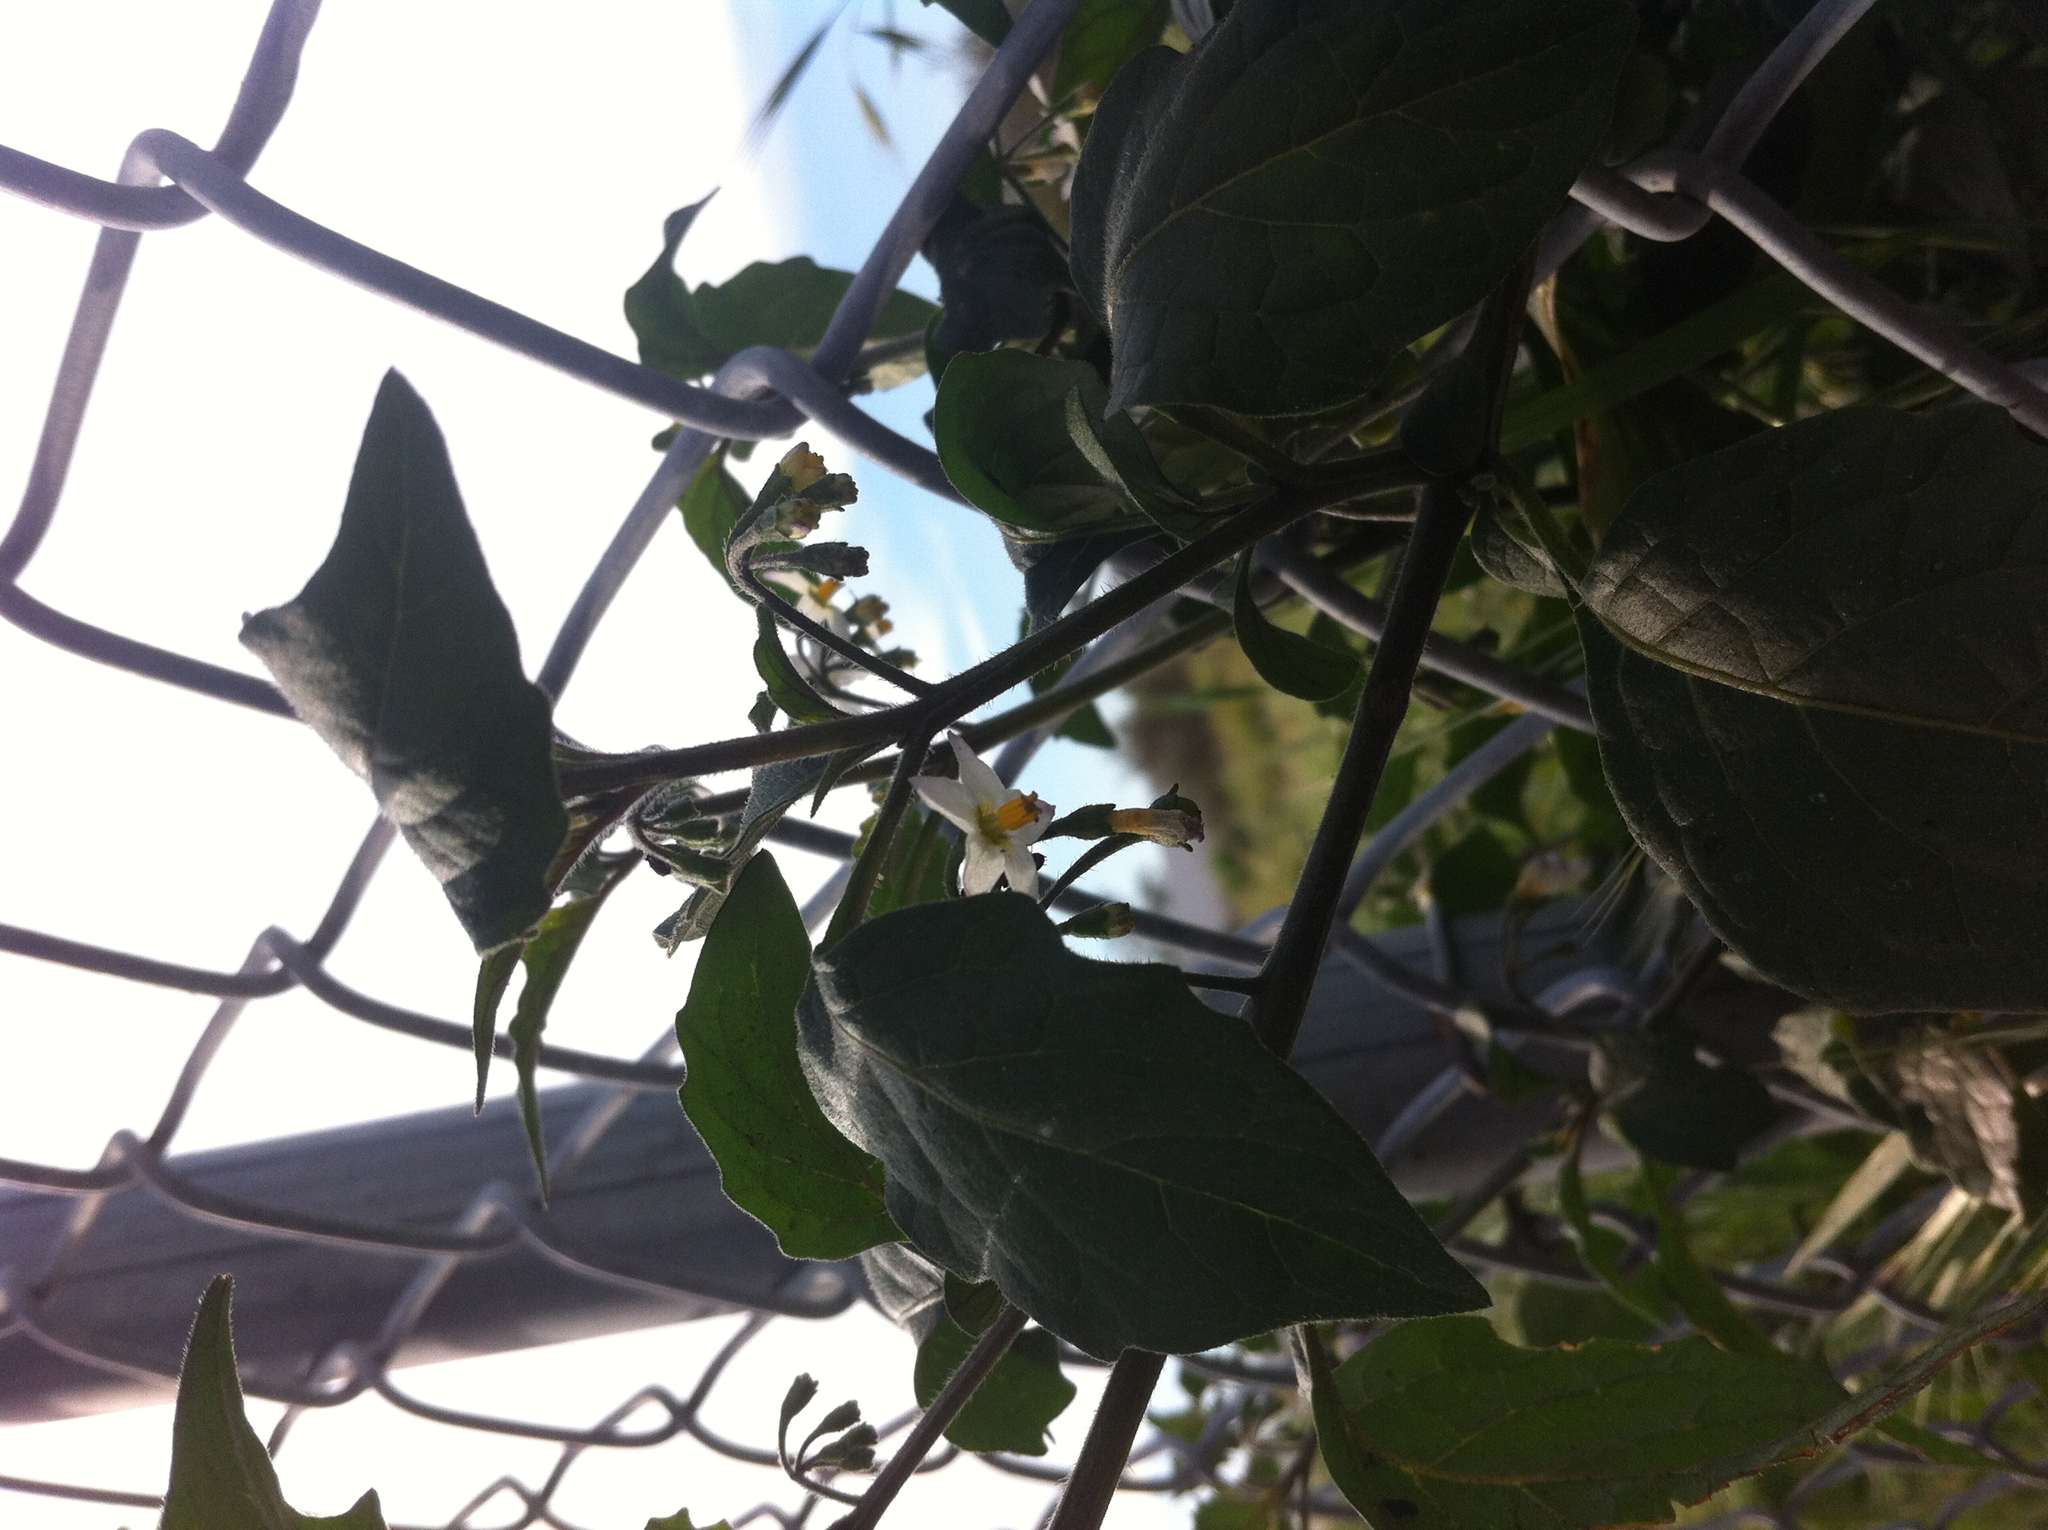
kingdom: Plantae
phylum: Tracheophyta
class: Magnoliopsida
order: Solanales
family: Solanaceae
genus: Solanum
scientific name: Solanum nigrum
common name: Black nightshade
